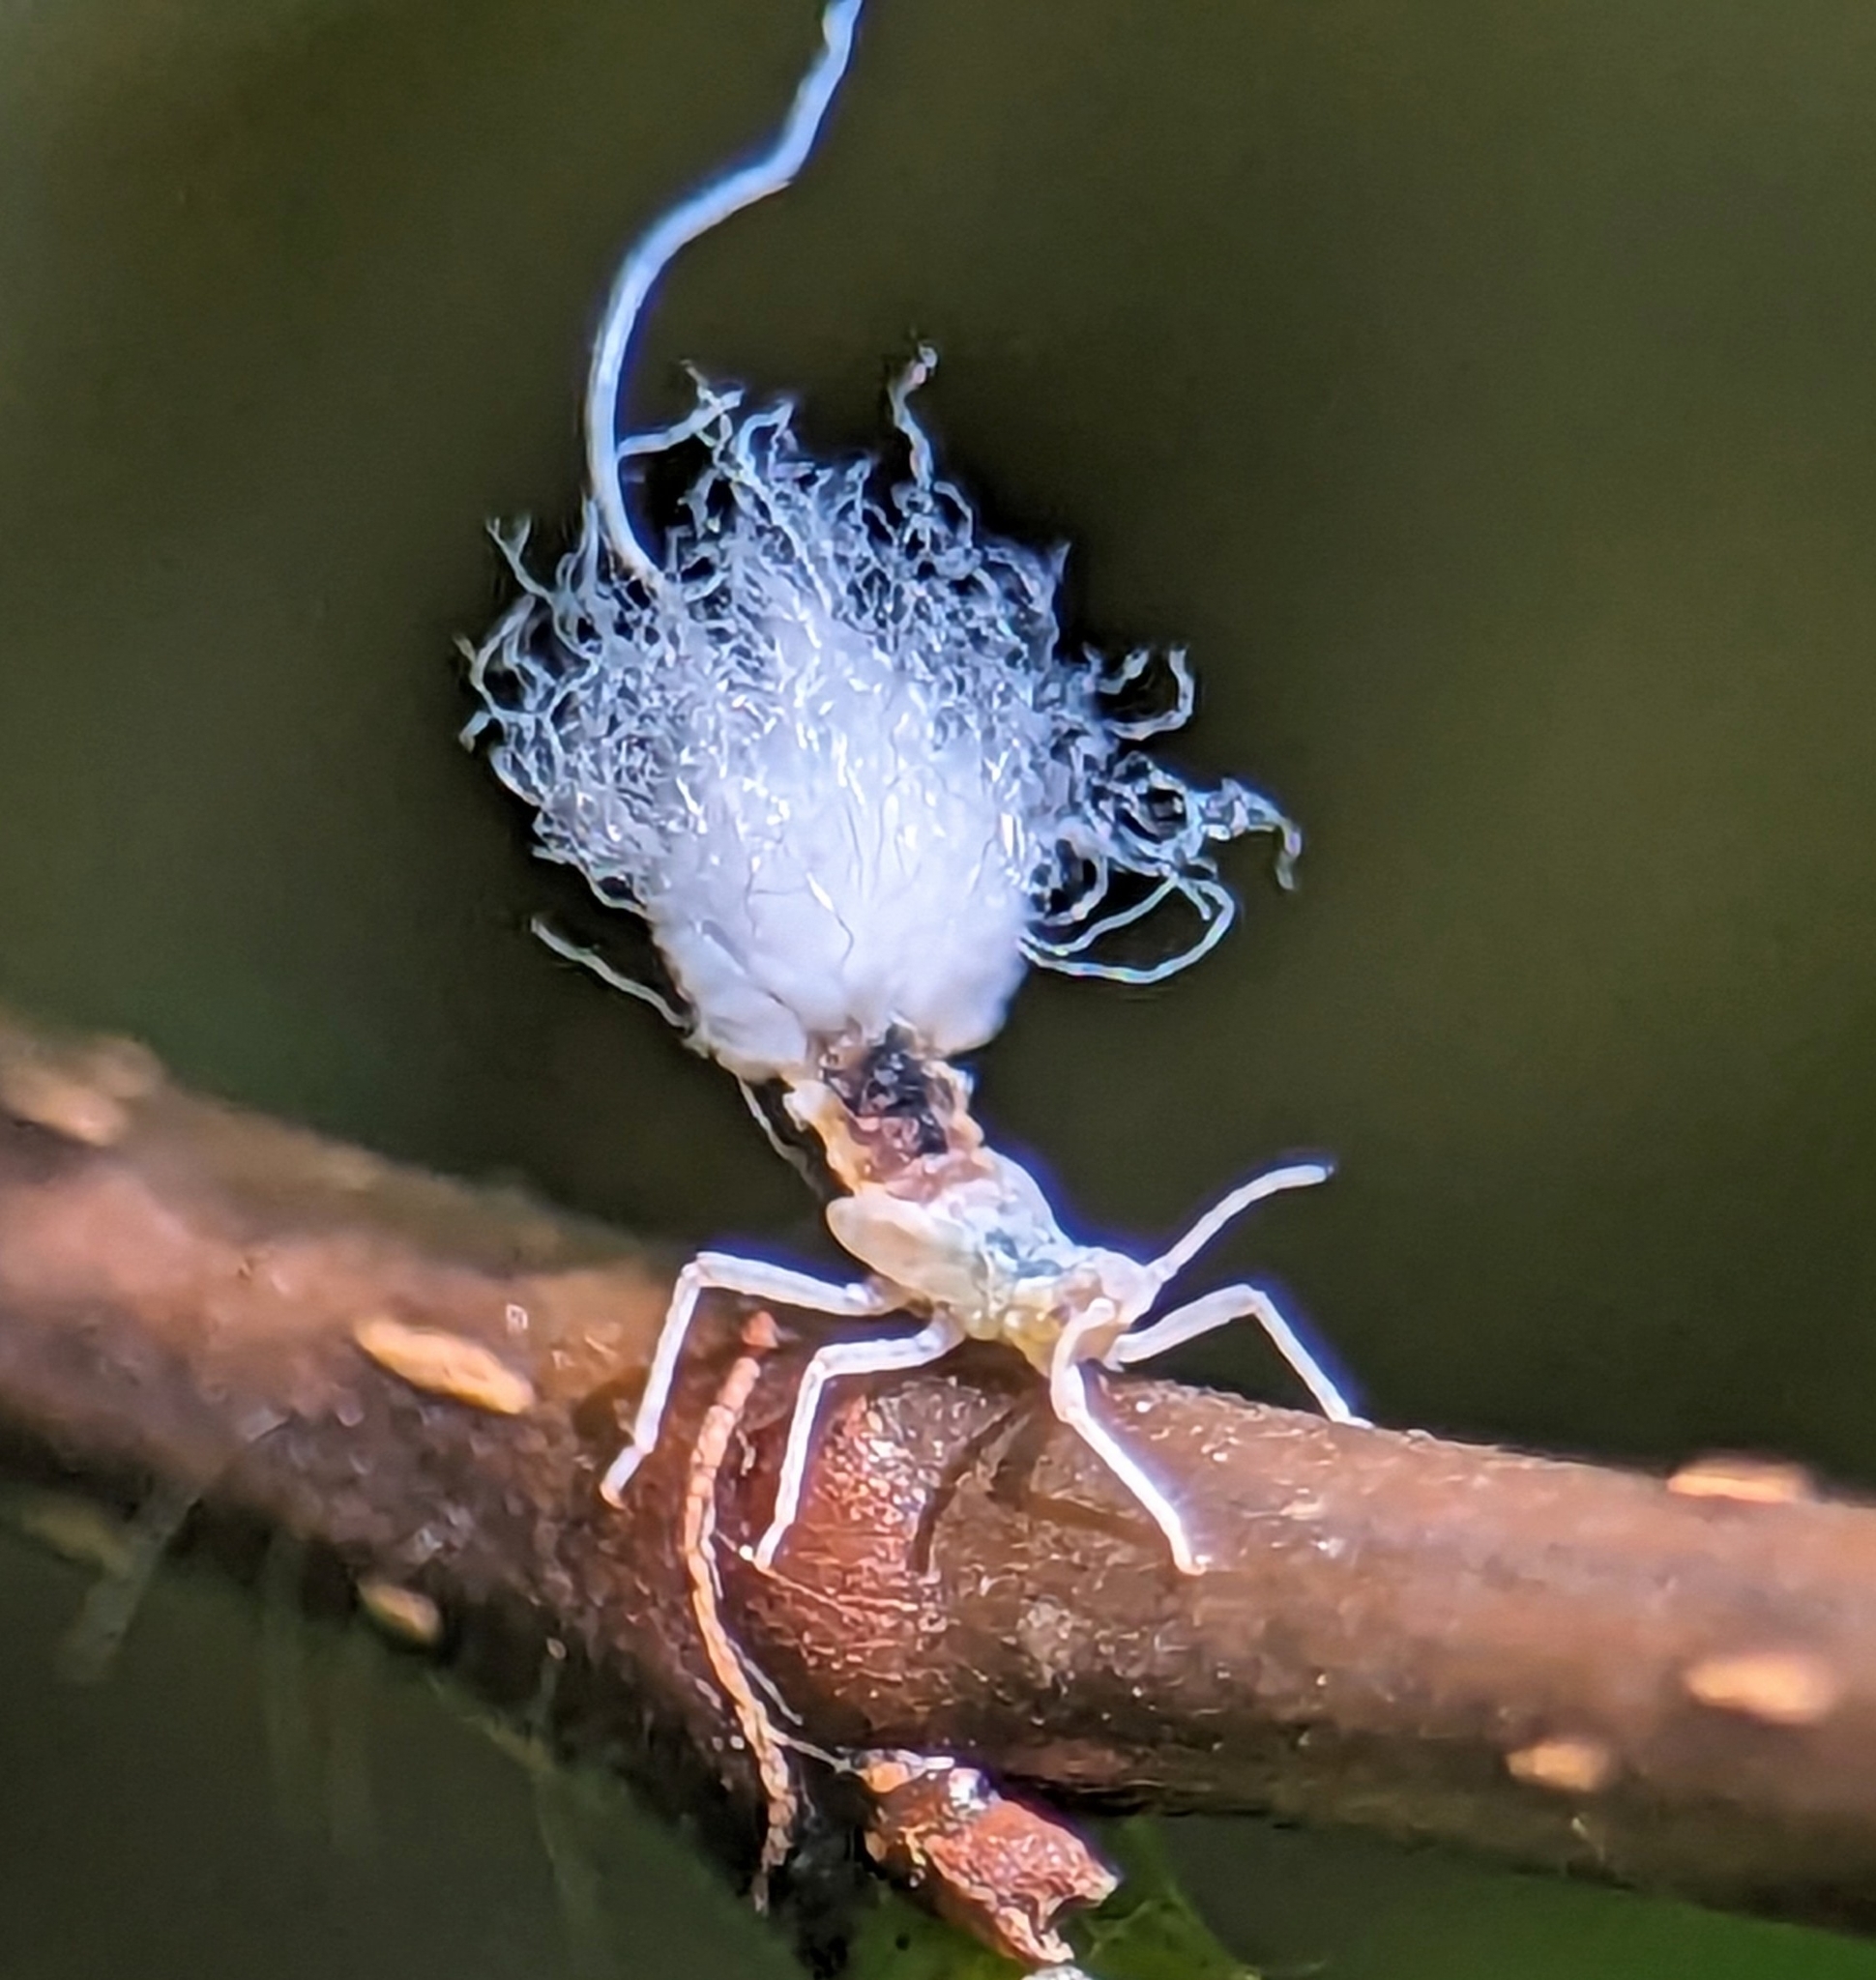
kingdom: Animalia
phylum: Arthropoda
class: Insecta
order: Hemiptera
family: Aphididae
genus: Grylloprociphilus
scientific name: Grylloprociphilus imbricator
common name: Beech blight aphid
